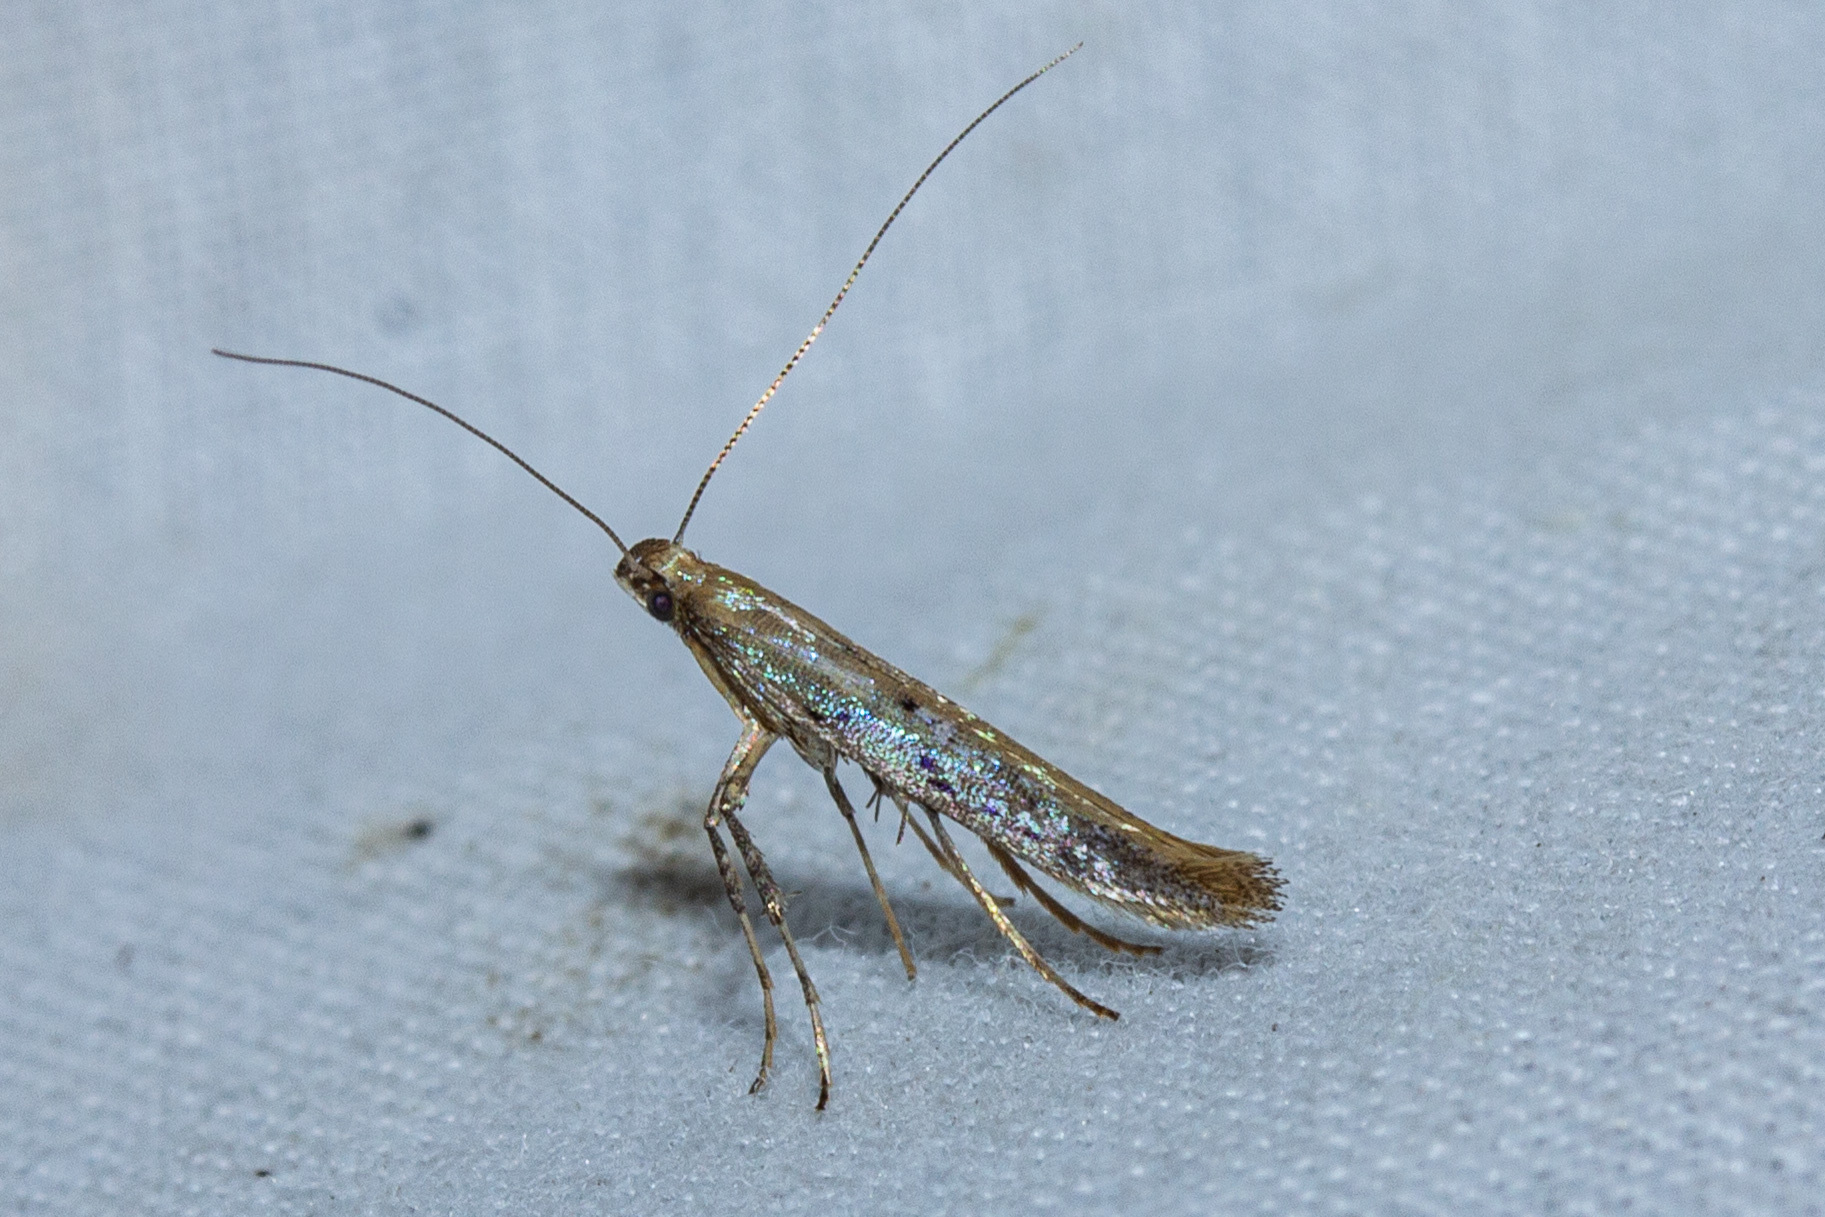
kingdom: Animalia
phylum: Arthropoda
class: Insecta
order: Lepidoptera
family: Gracillariidae
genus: Caloptilia
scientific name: Caloptilia elaeas
